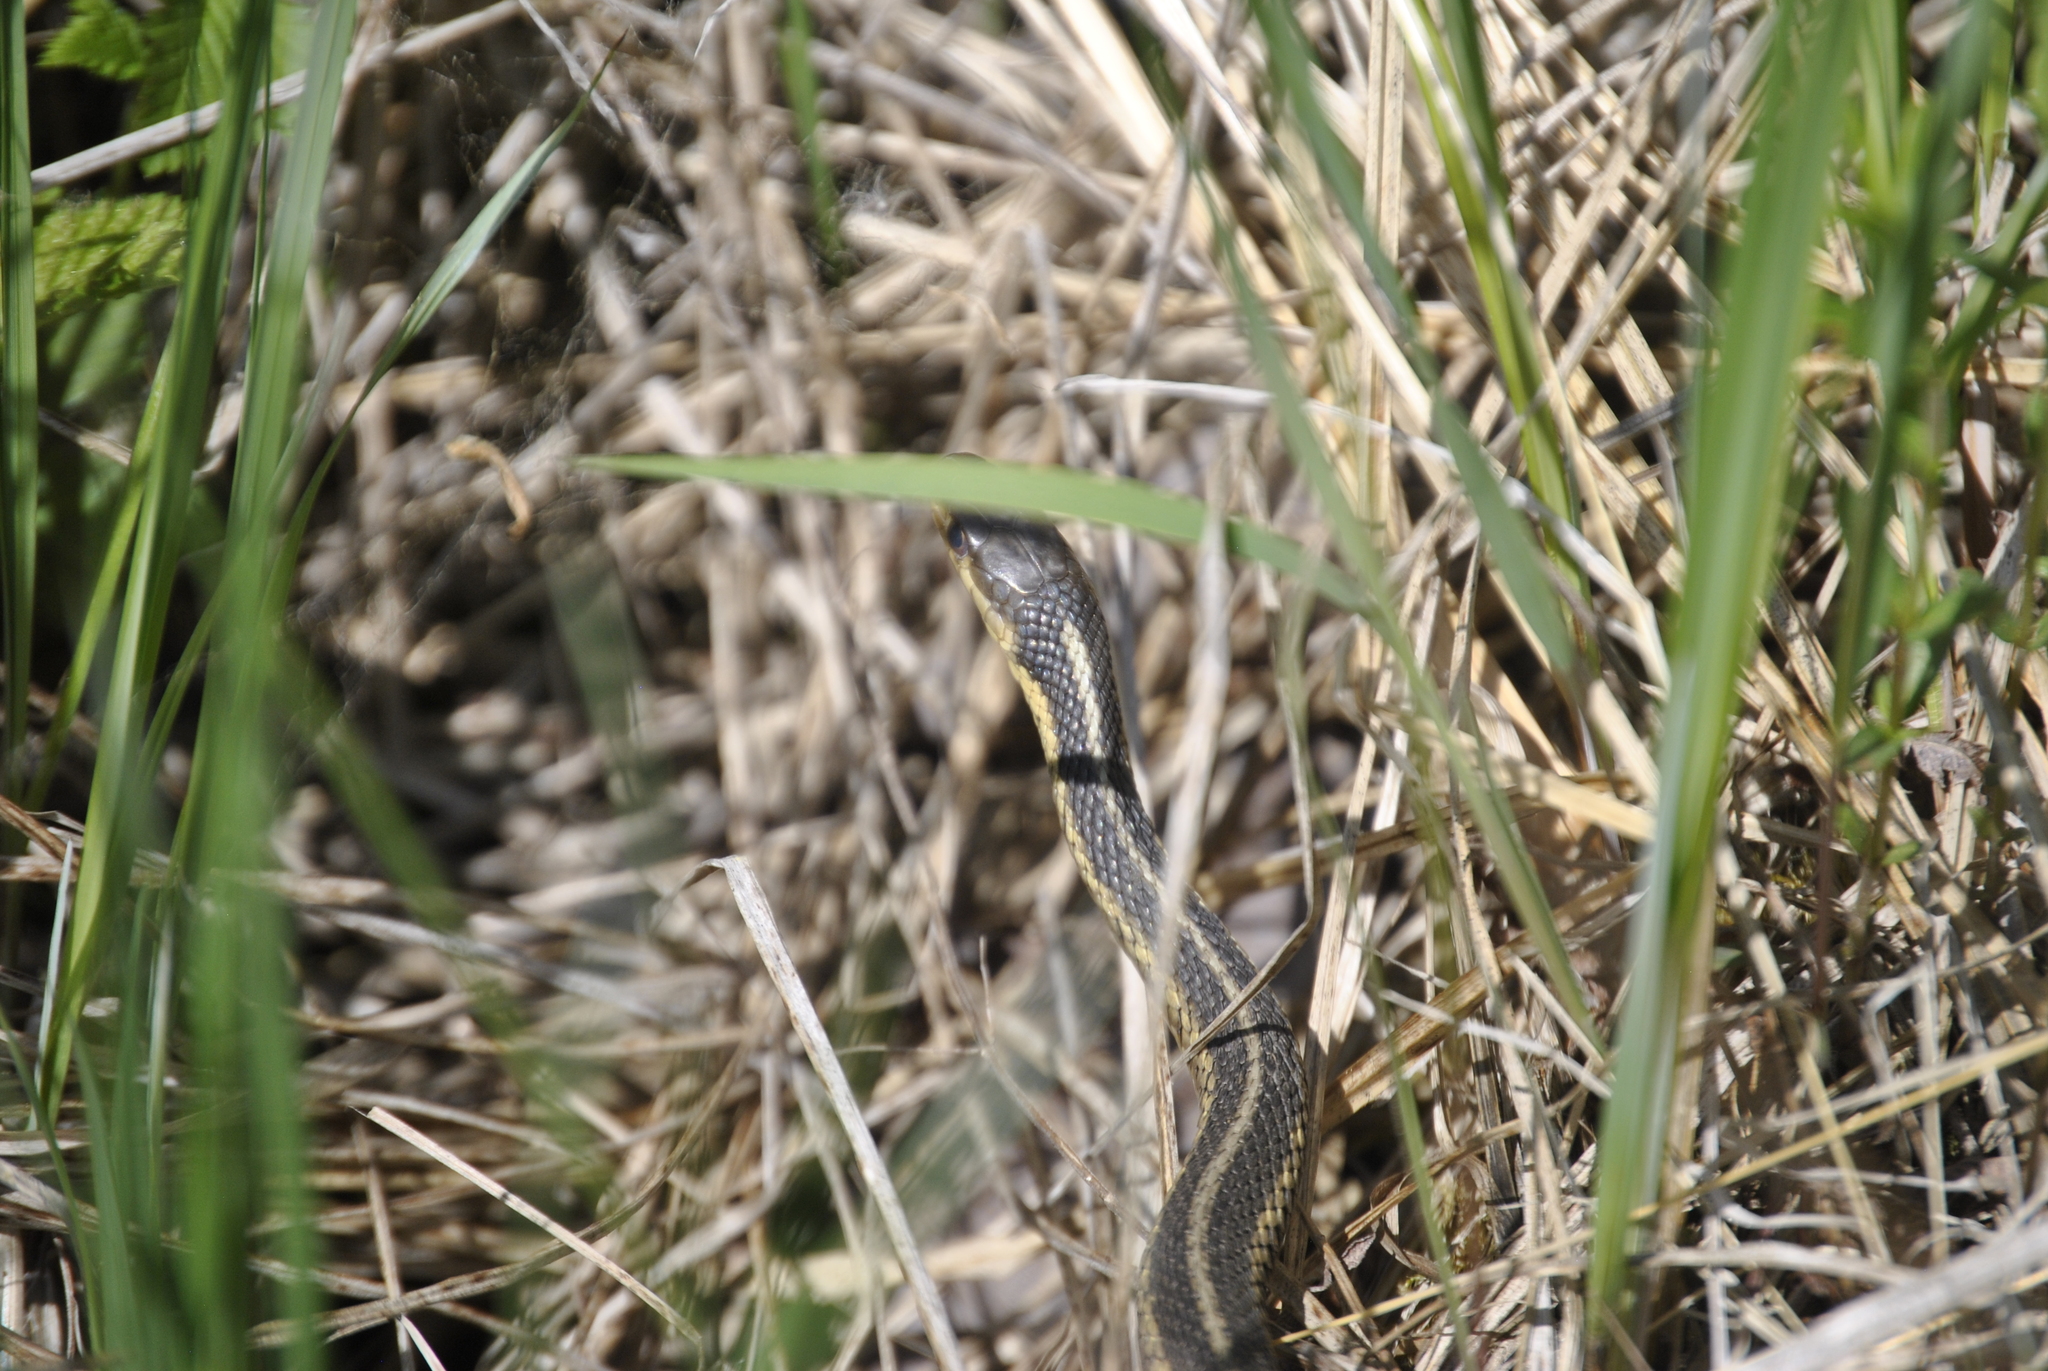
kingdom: Animalia
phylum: Chordata
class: Squamata
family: Colubridae
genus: Thamnophis
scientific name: Thamnophis sirtalis
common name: Common garter snake
